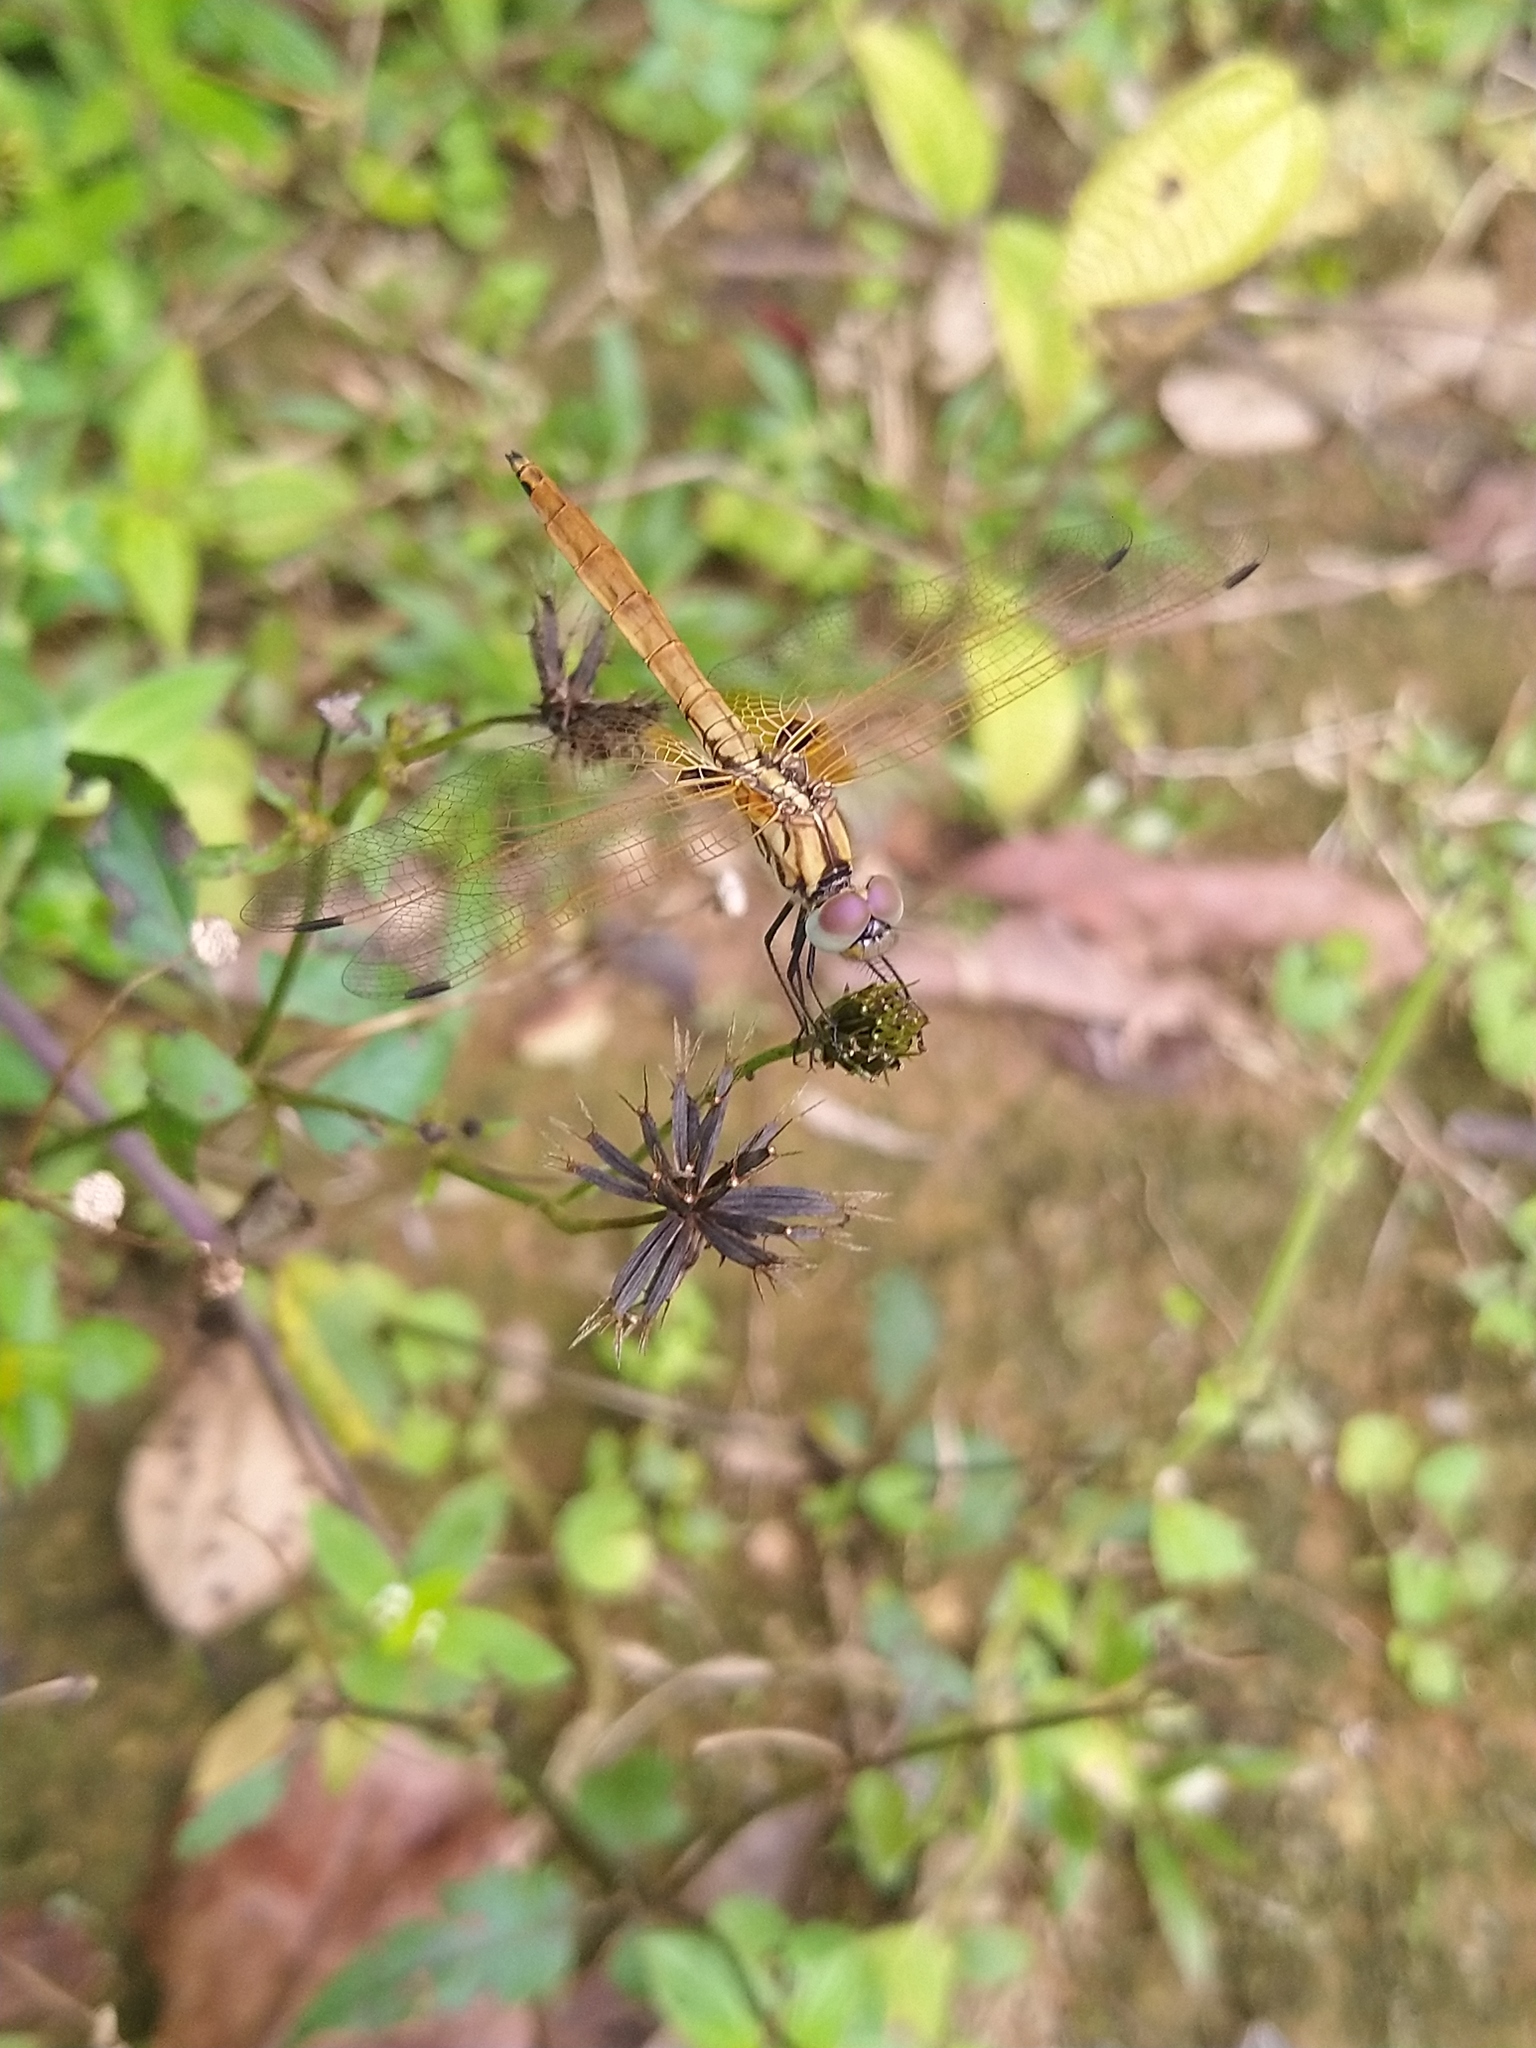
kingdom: Animalia
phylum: Arthropoda
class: Insecta
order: Odonata
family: Libellulidae
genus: Trithemis
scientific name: Trithemis aurora
